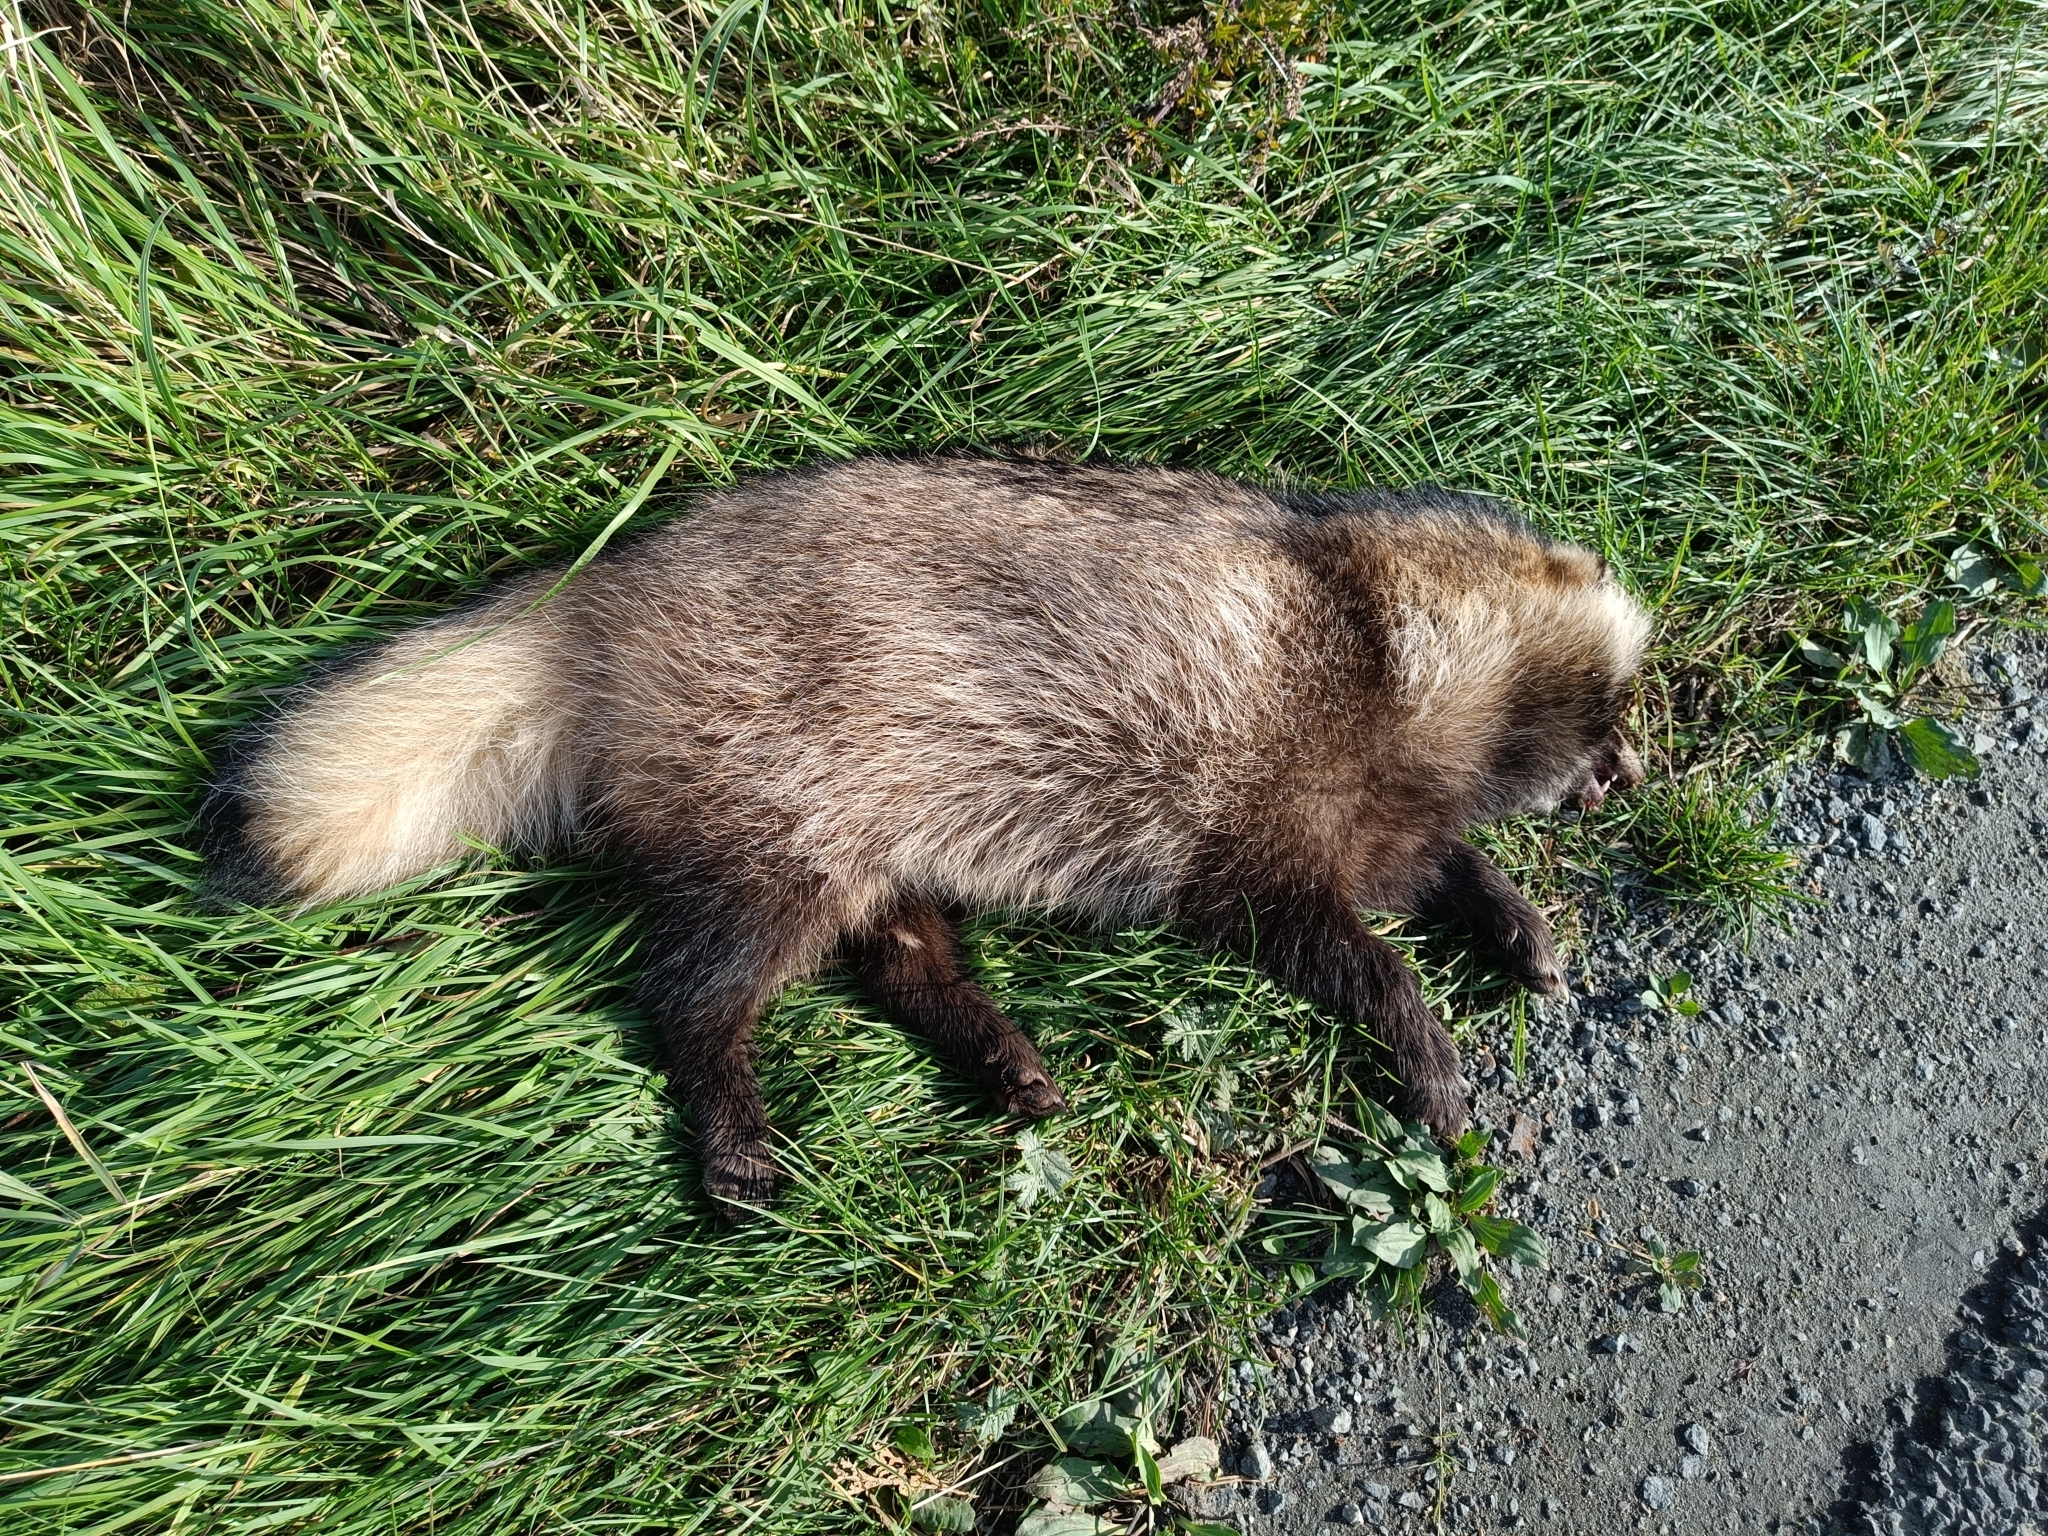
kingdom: Animalia
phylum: Chordata
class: Mammalia
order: Carnivora
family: Canidae
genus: Nyctereutes
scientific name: Nyctereutes procyonoides
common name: Raccoon dog
